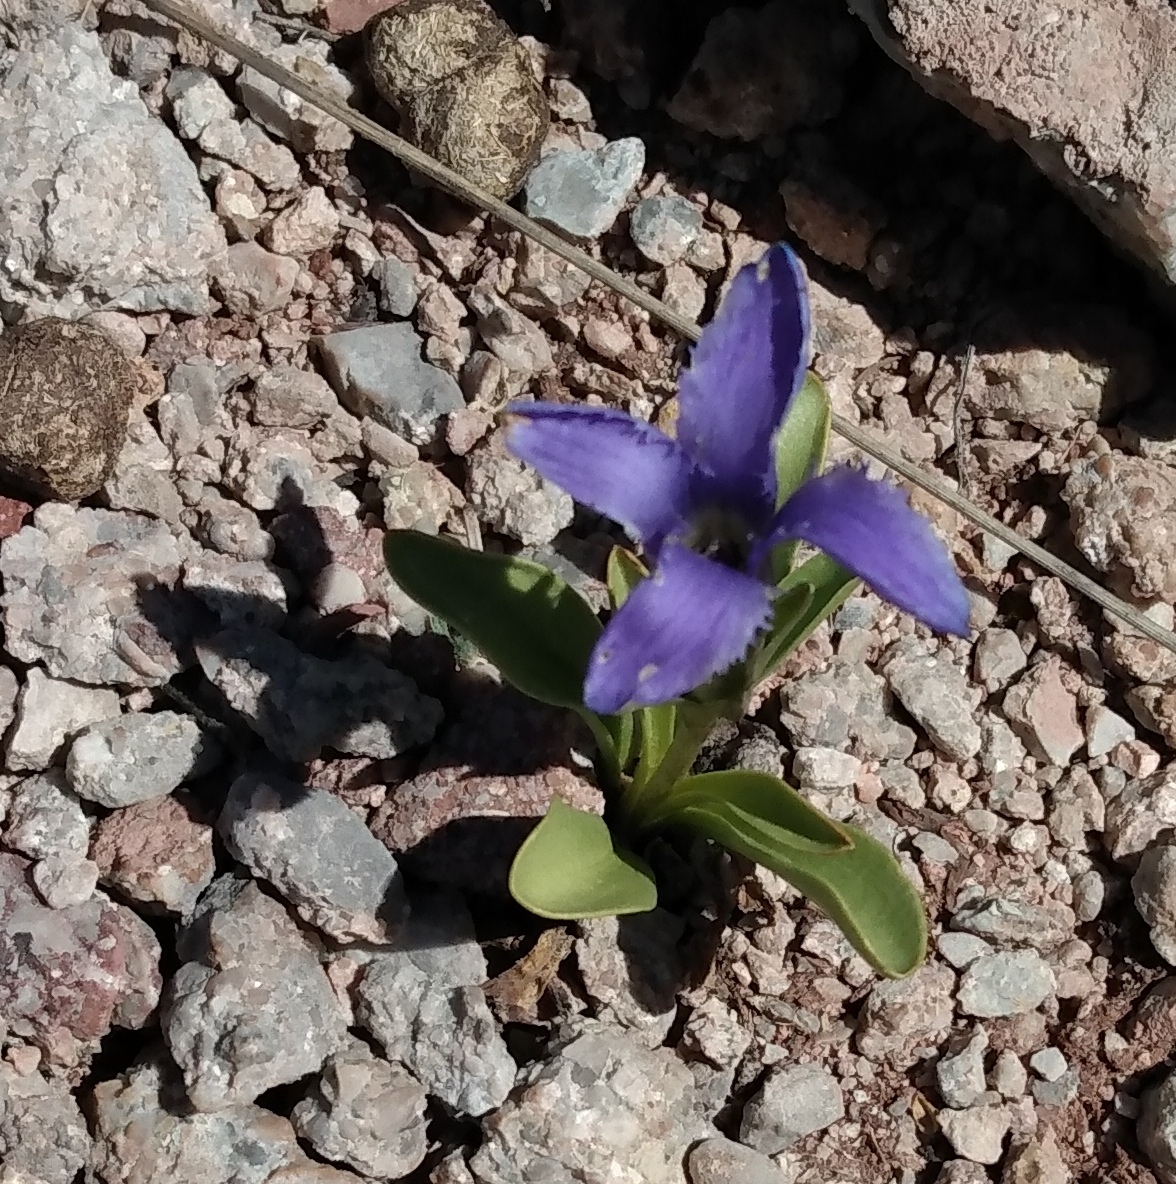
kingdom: Plantae
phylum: Tracheophyta
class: Magnoliopsida
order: Gentianales
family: Gentianaceae
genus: Gentianopsis
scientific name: Gentianopsis barbellata
